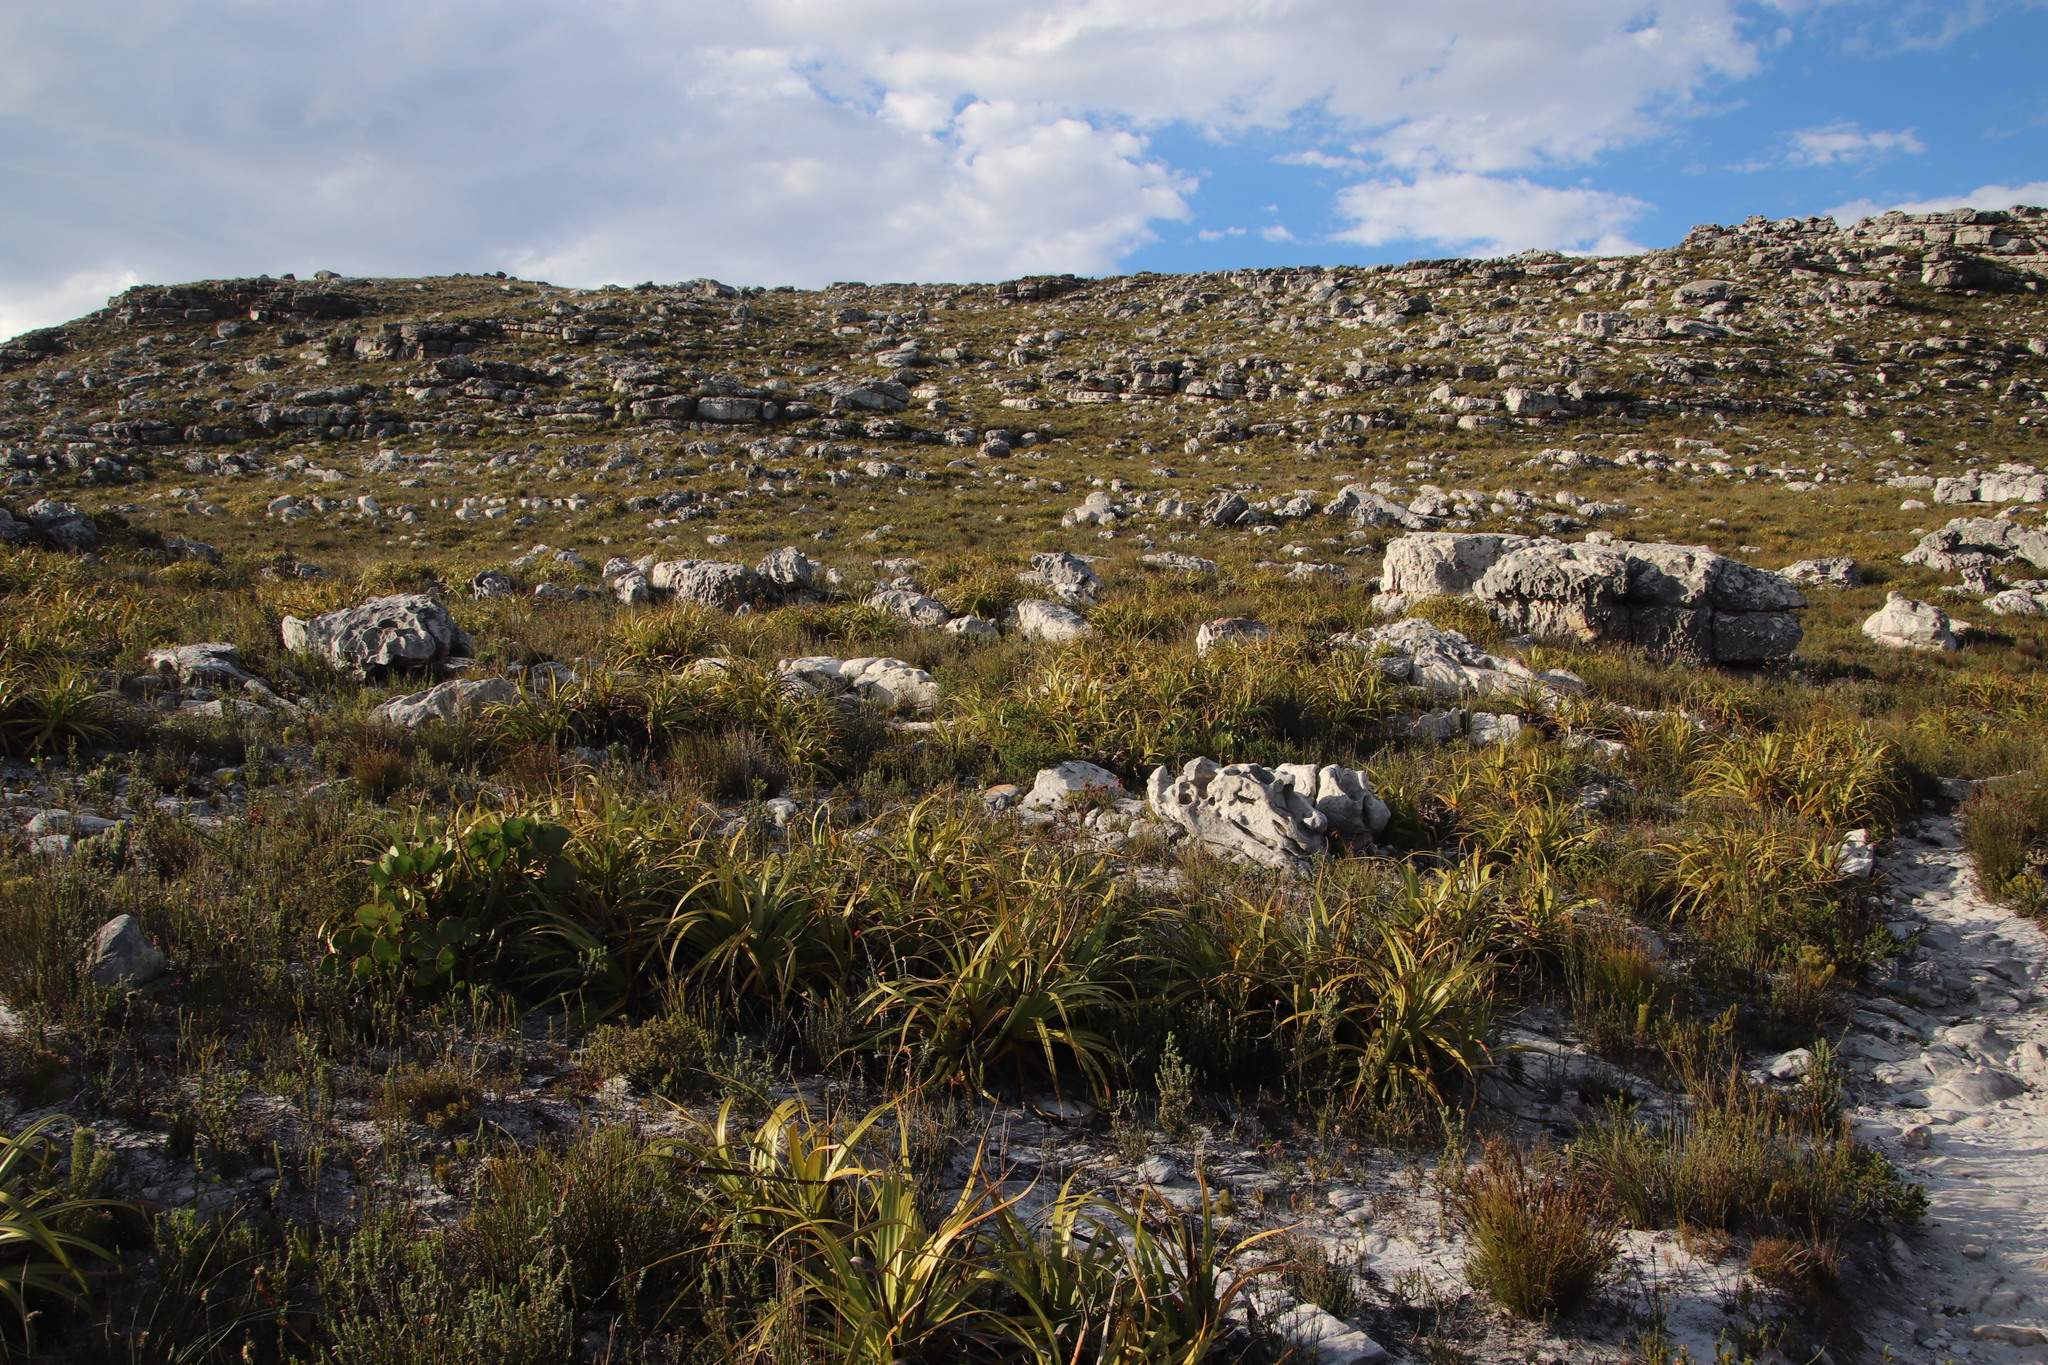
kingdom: Plantae
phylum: Tracheophyta
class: Liliopsida
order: Poales
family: Cyperaceae
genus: Tetraria
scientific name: Tetraria thermalis
